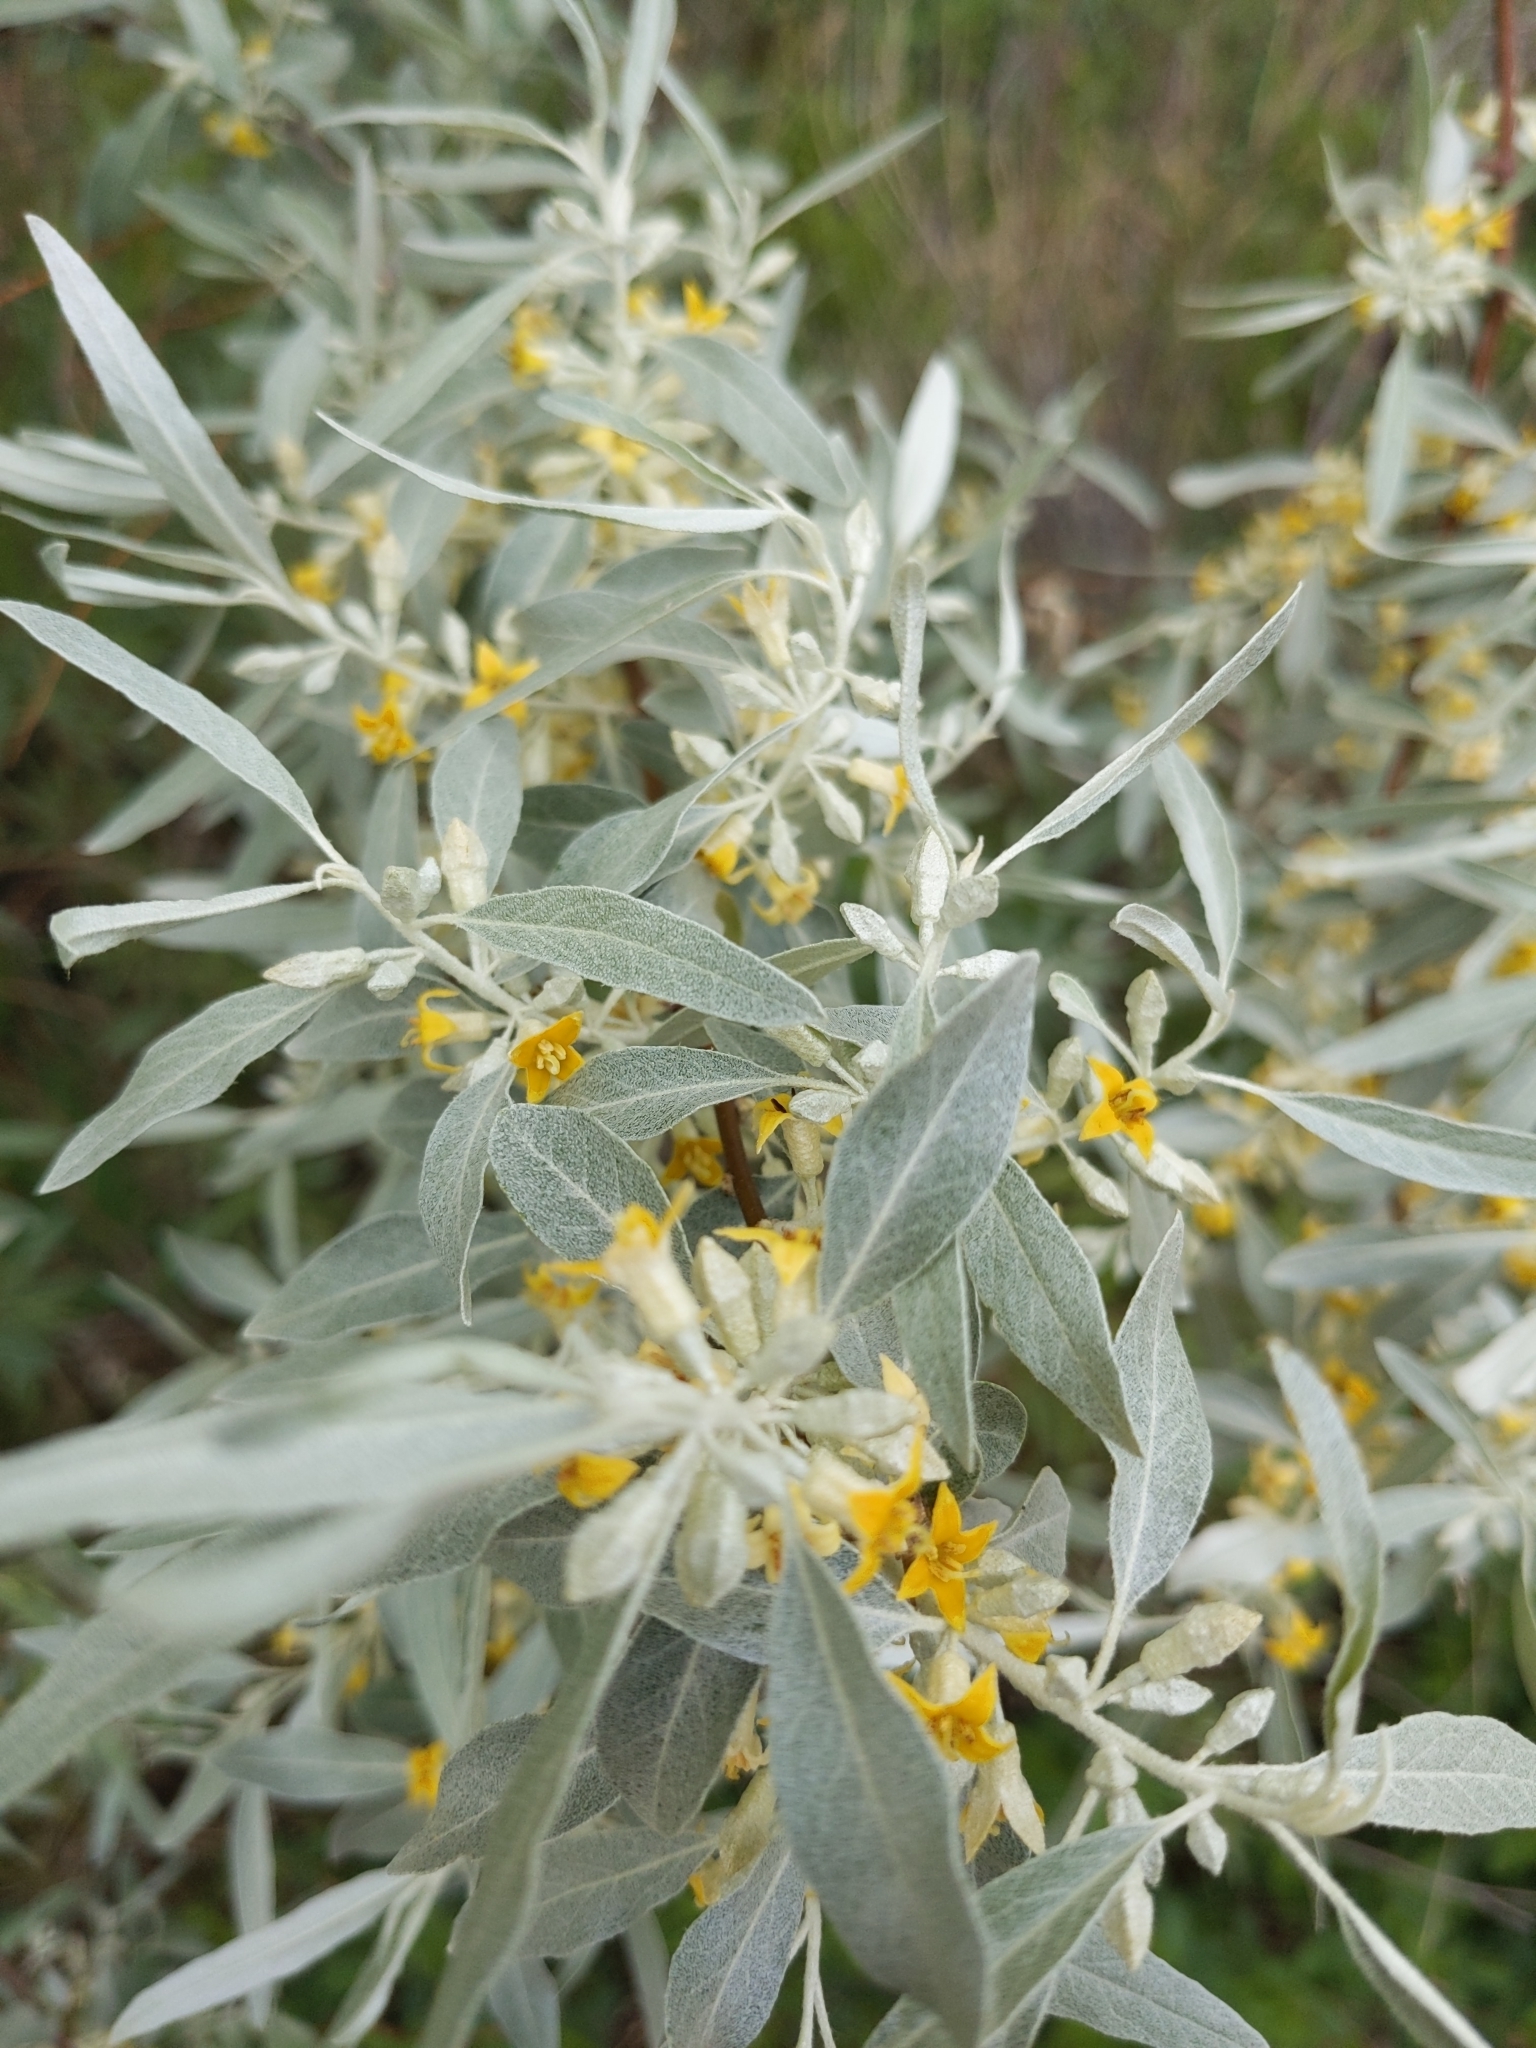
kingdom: Plantae
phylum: Tracheophyta
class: Magnoliopsida
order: Rosales
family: Elaeagnaceae
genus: Elaeagnus
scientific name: Elaeagnus angustifolia
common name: Russian olive
